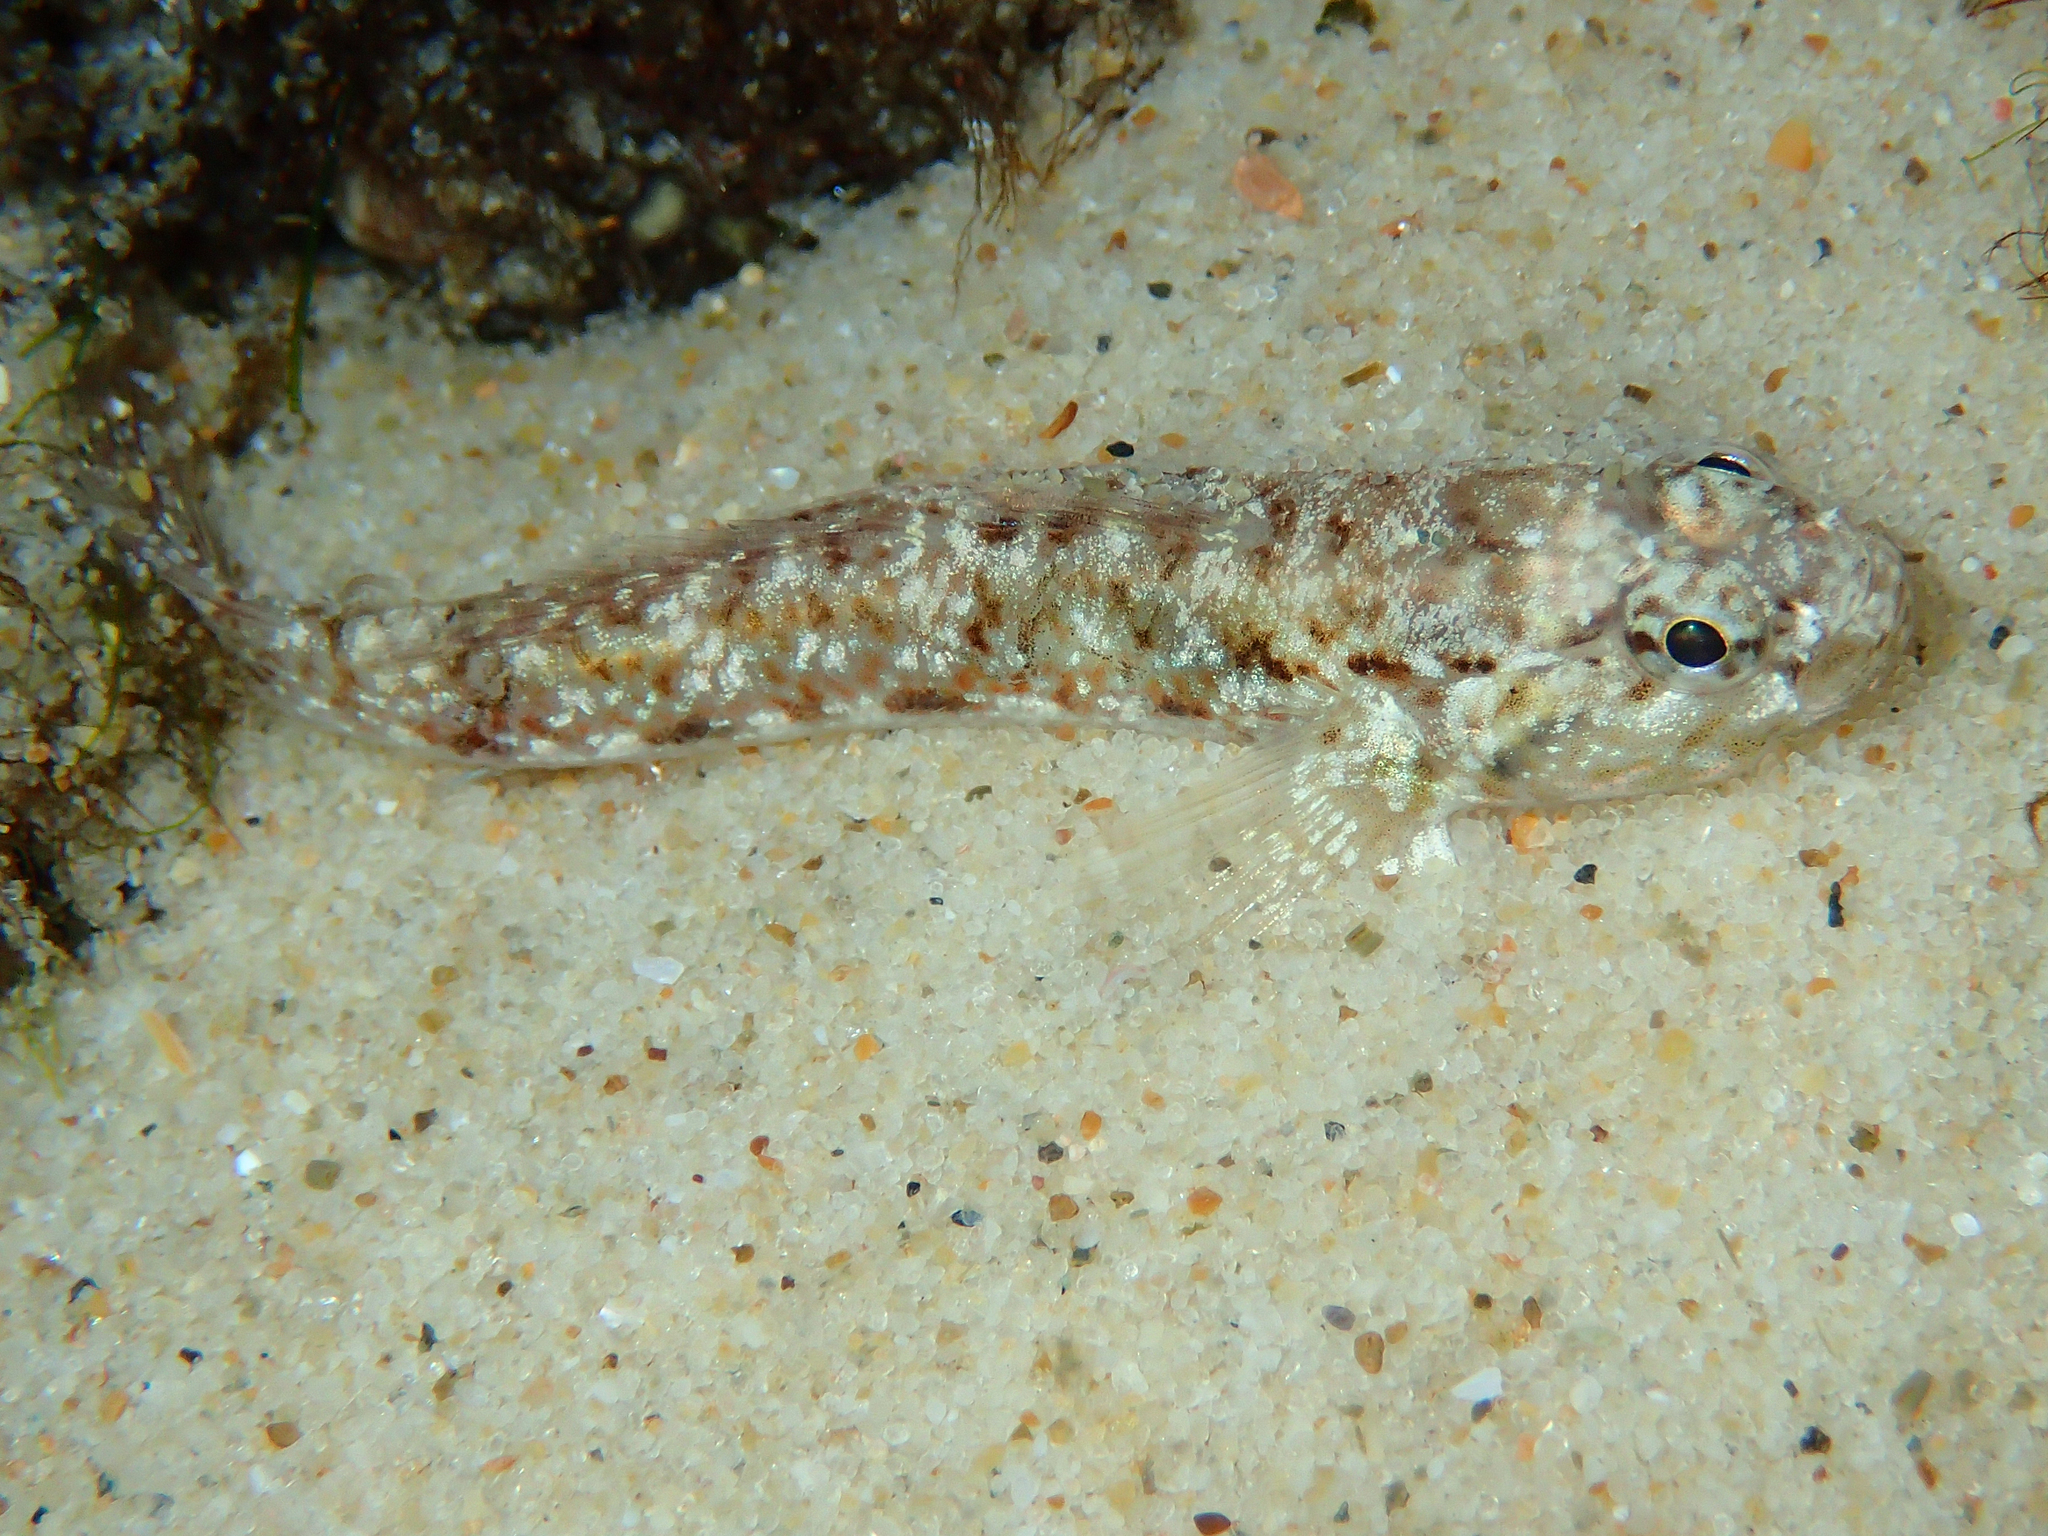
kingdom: Animalia
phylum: Chordata
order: Perciformes
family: Gobiidae
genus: Bathygobius
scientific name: Bathygobius cocosensis
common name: Cocos frillgoby
